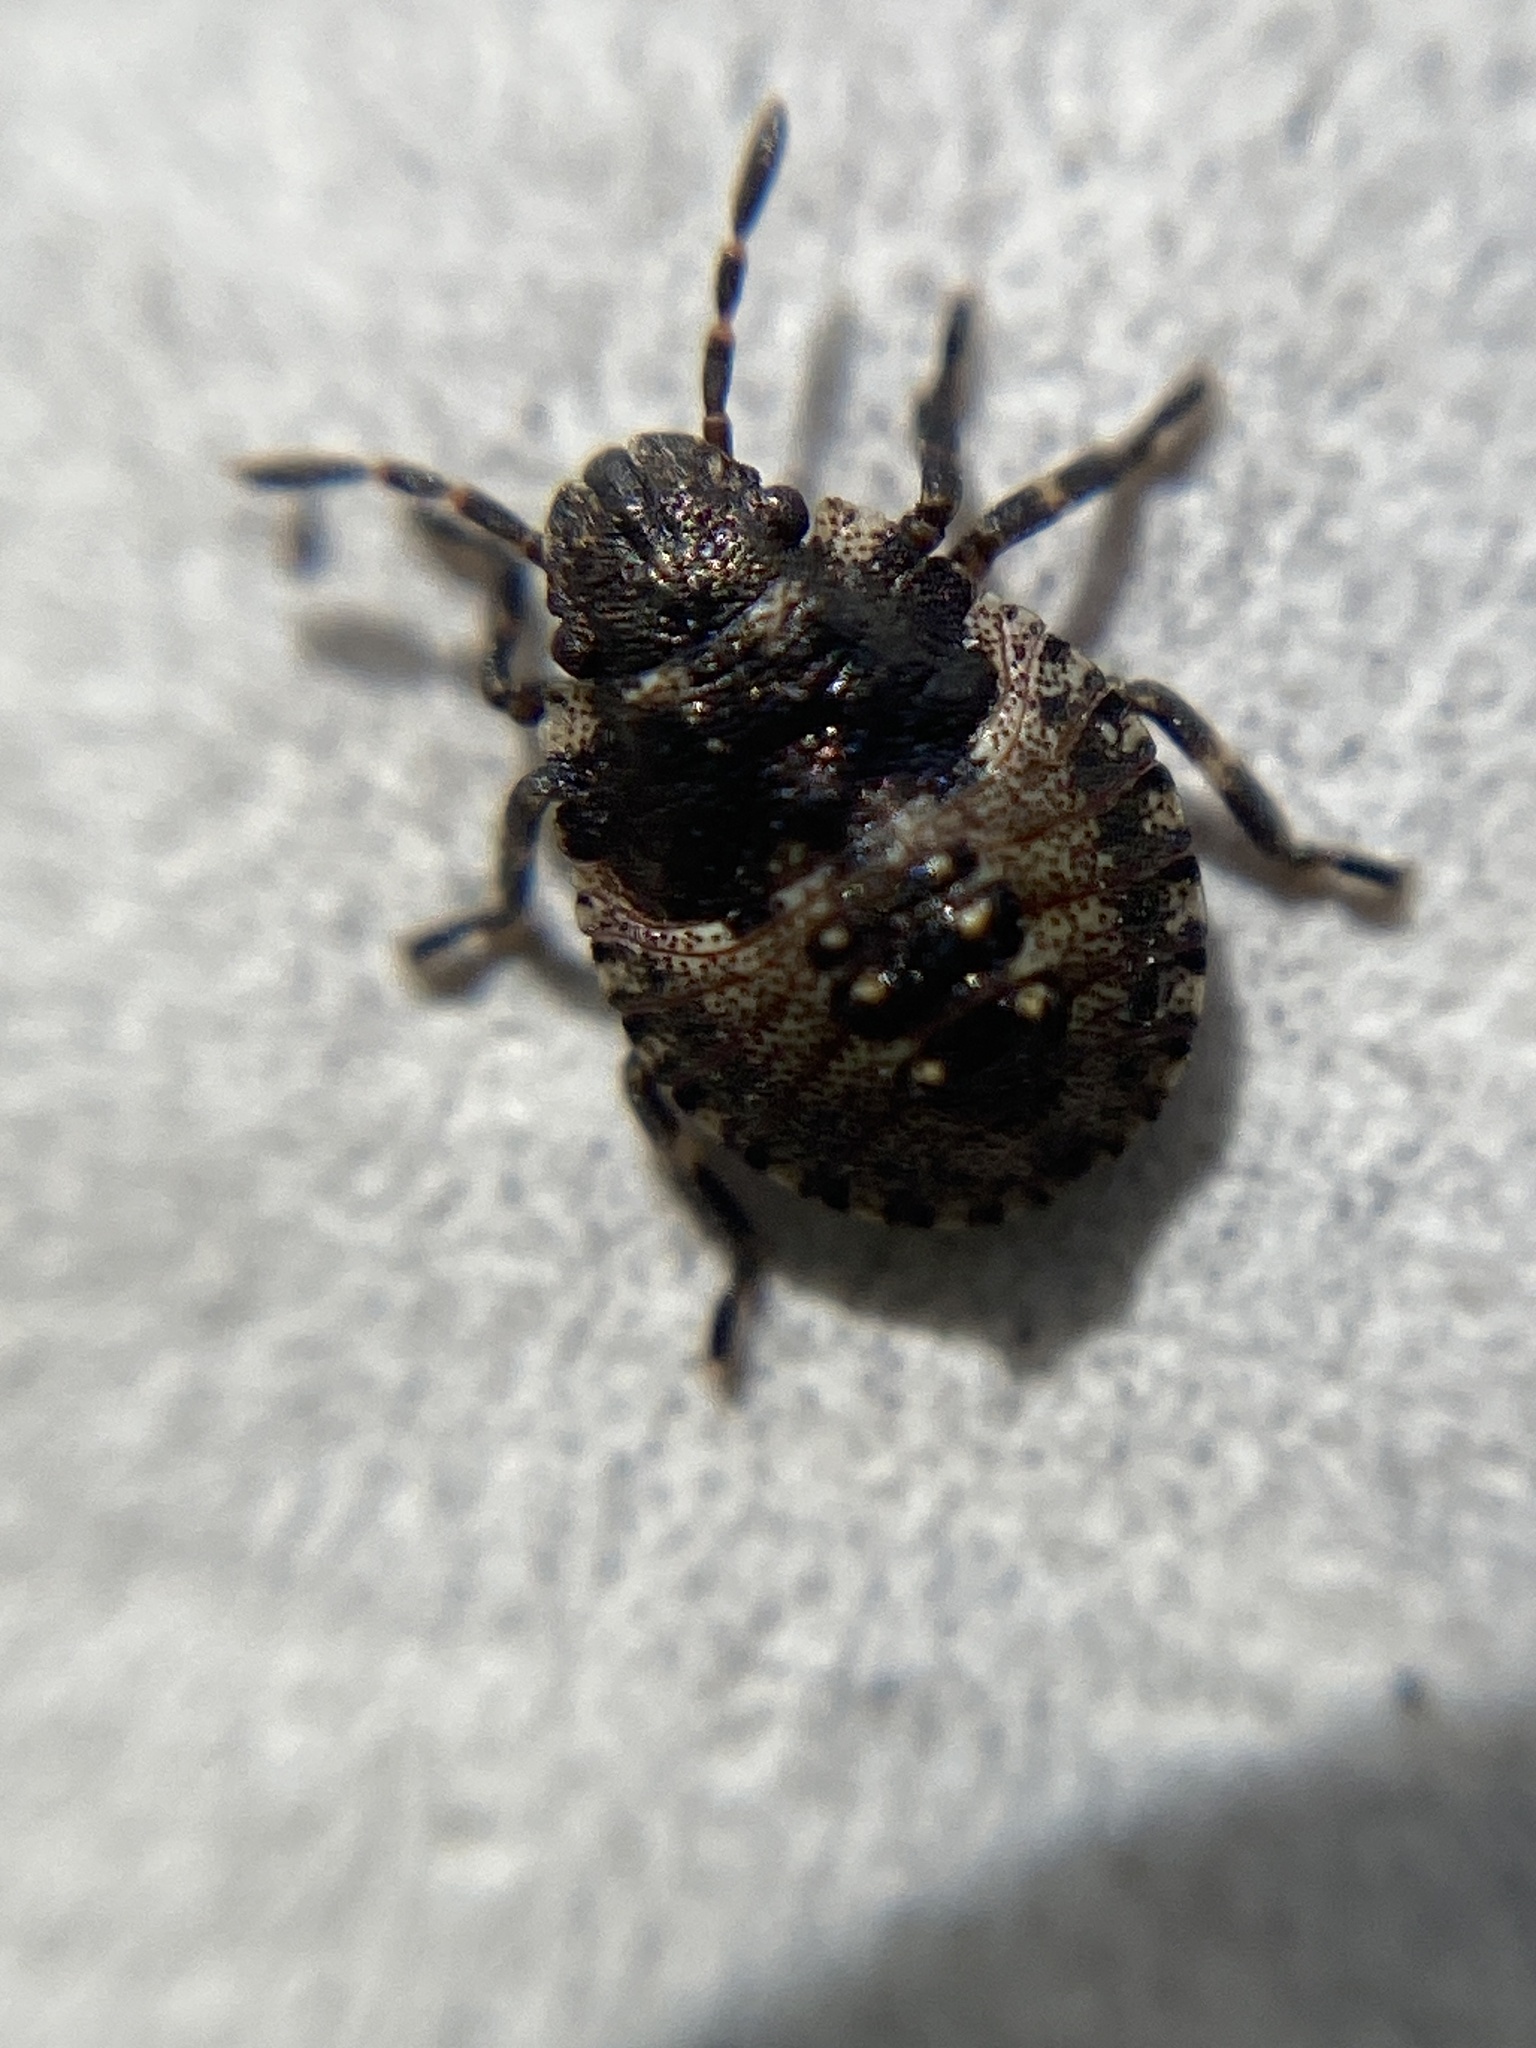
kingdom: Animalia
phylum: Arthropoda
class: Insecta
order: Hemiptera
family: Pentatomidae
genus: Pentatoma
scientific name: Pentatoma rufipes
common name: Forest bug
